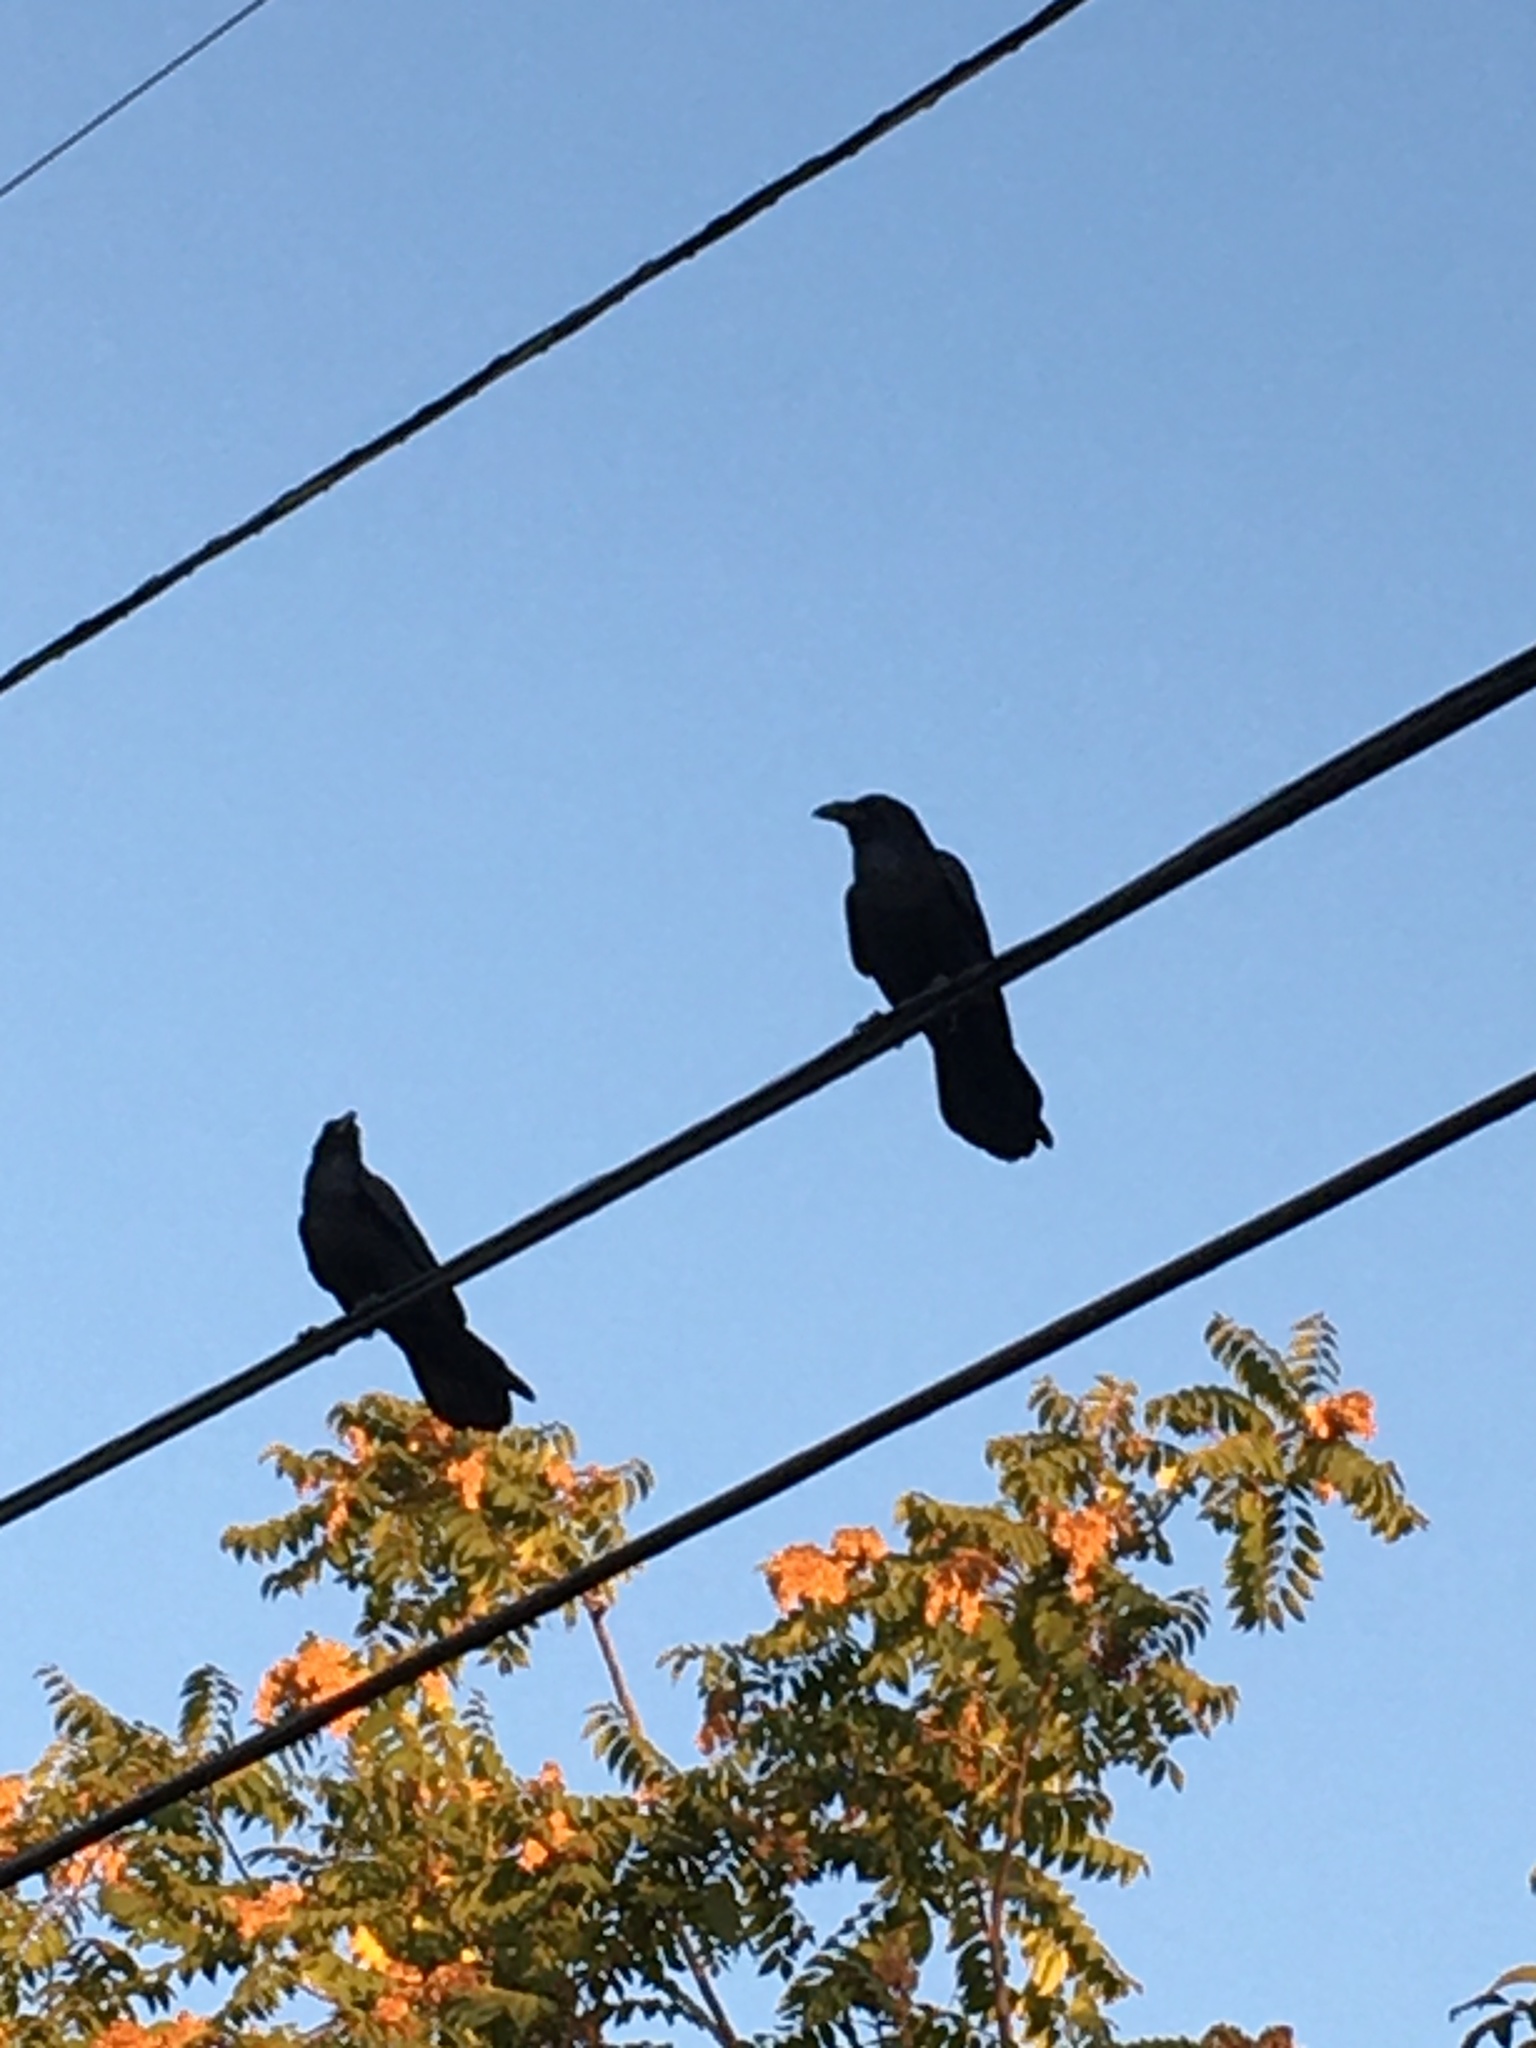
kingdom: Animalia
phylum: Chordata
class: Aves
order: Passeriformes
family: Corvidae
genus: Corvus
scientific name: Corvus corax
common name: Common raven
